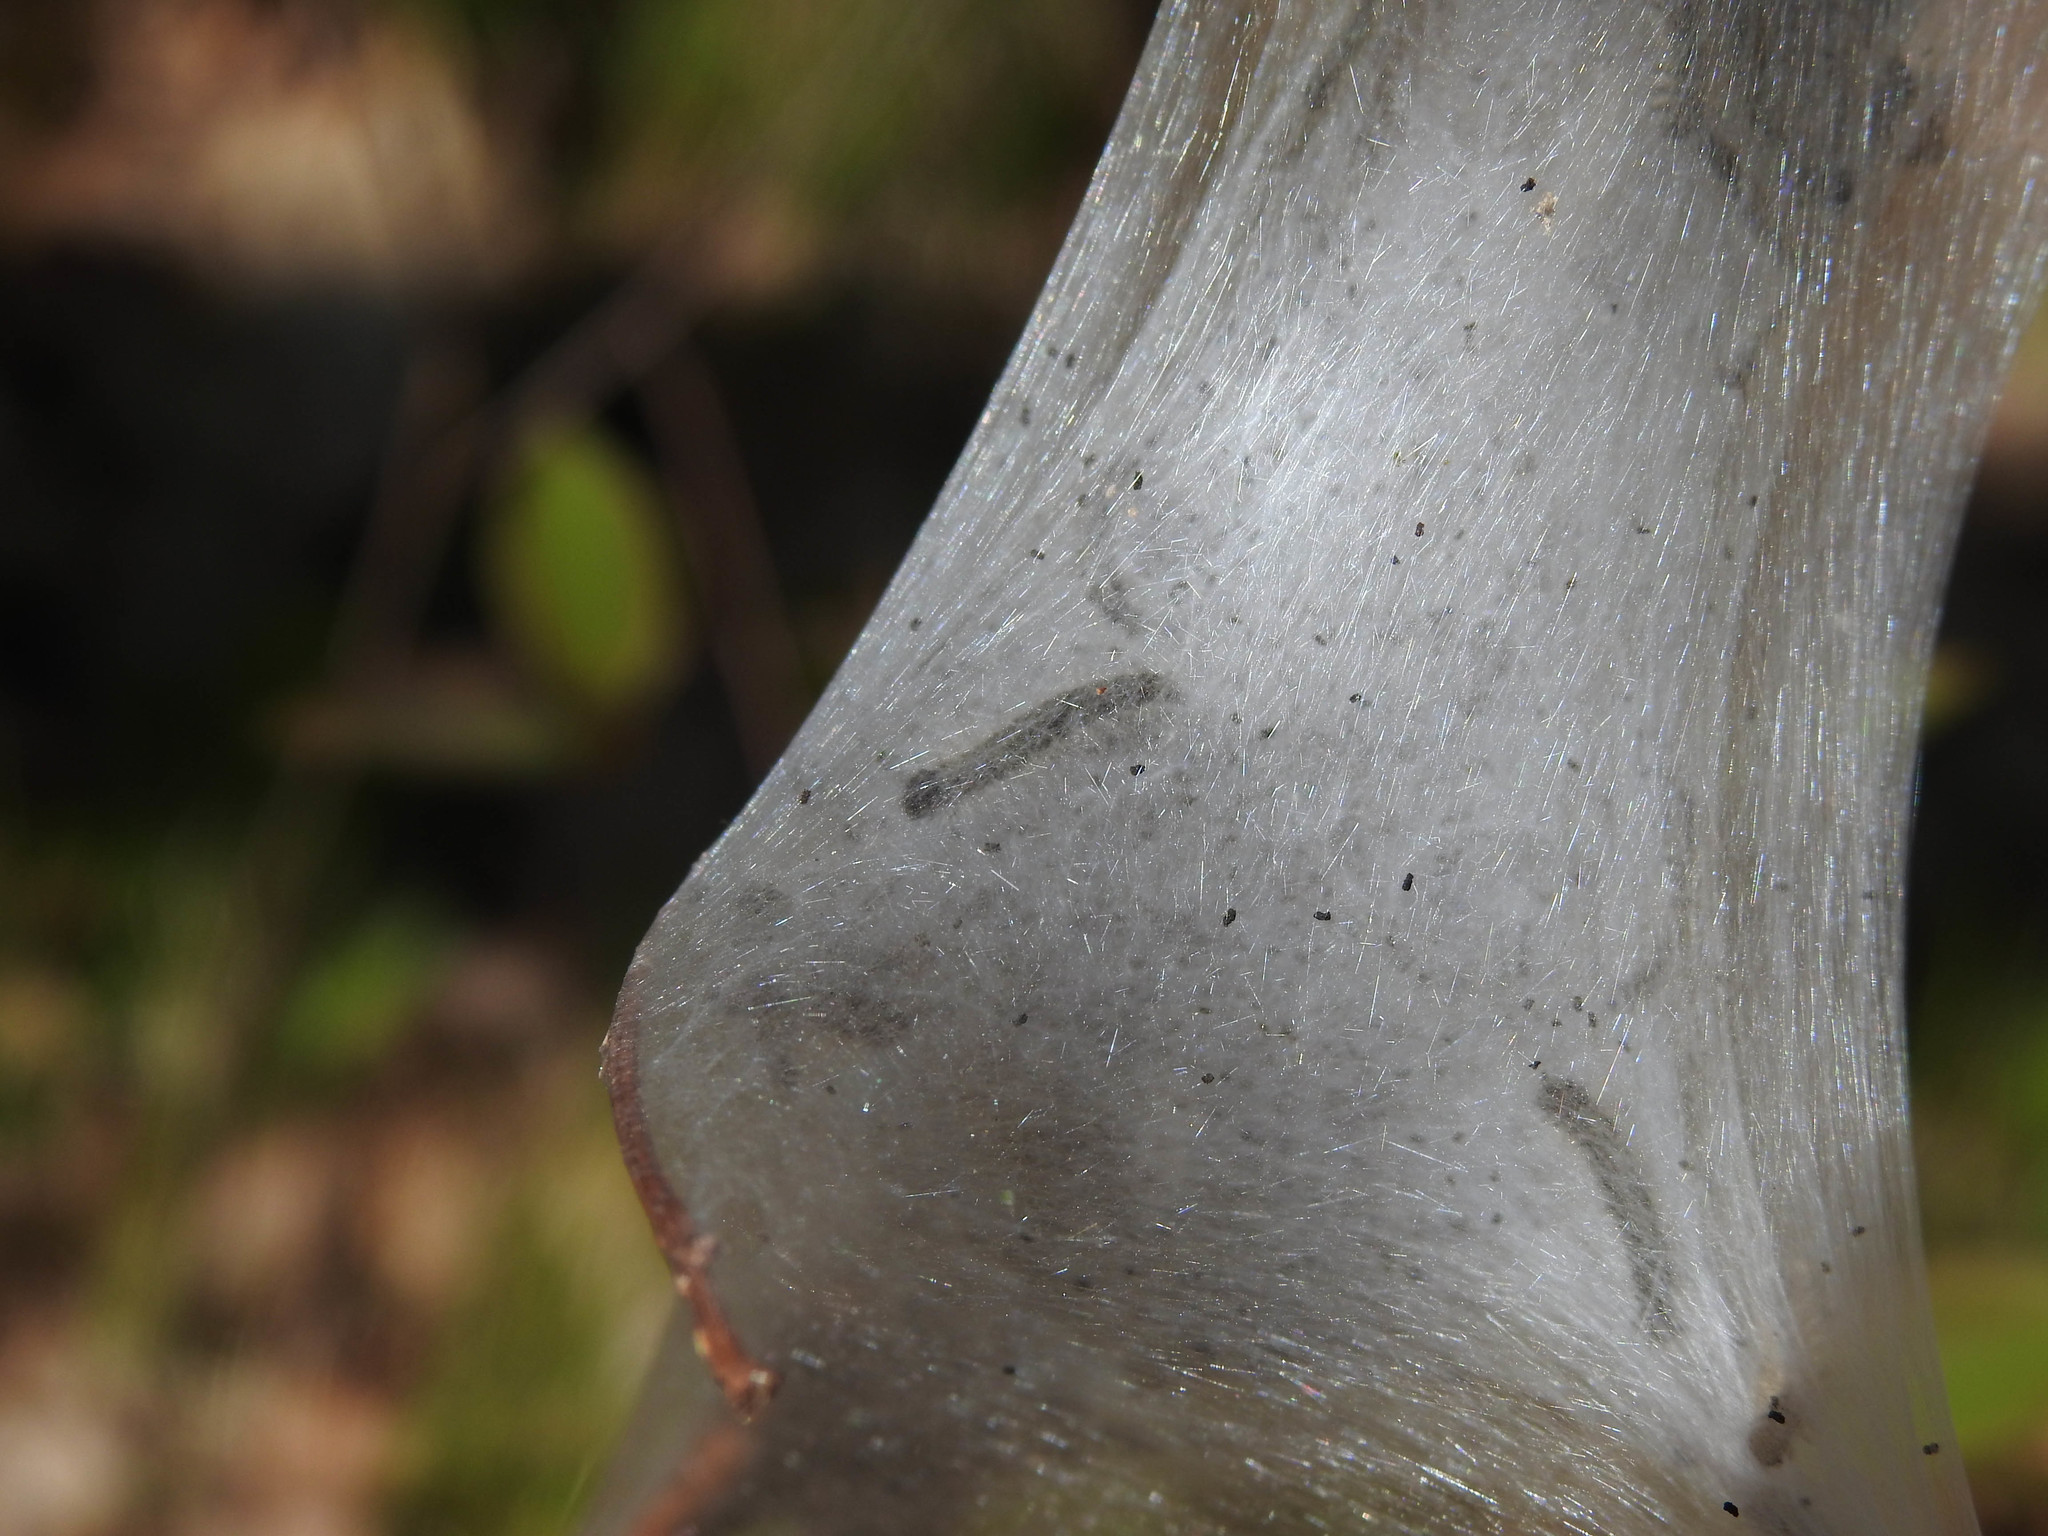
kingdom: Animalia
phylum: Arthropoda
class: Insecta
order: Lepidoptera
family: Lasiocampidae
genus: Malacosoma
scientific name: Malacosoma americana
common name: Eastern tent caterpillar moth
